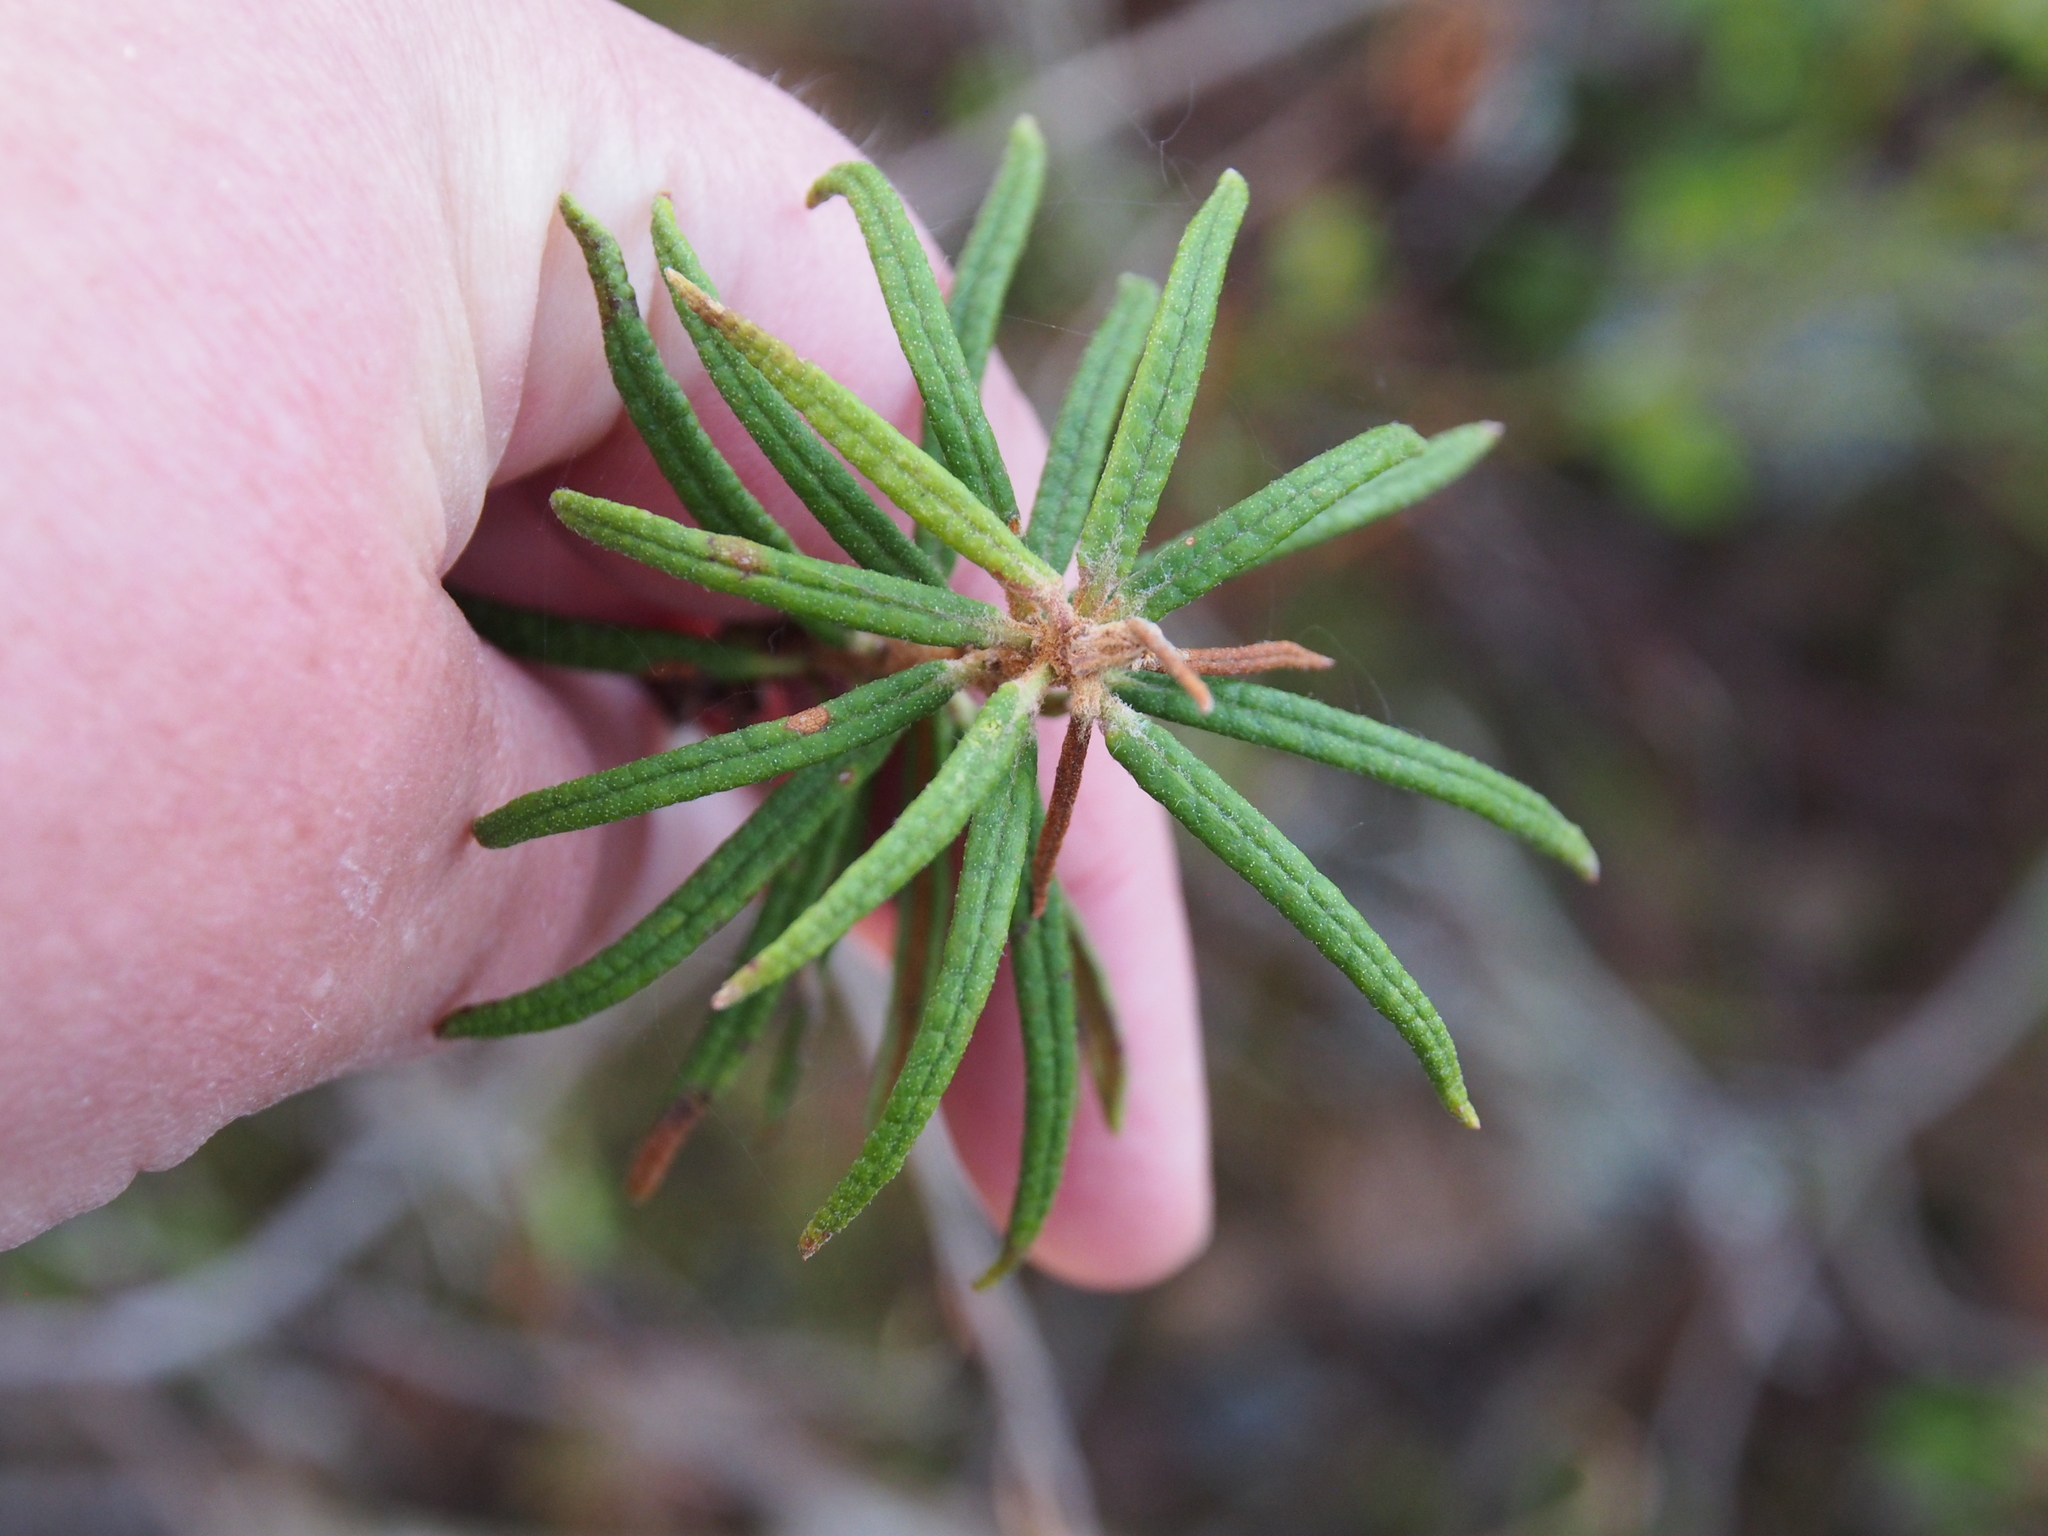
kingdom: Plantae
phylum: Tracheophyta
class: Magnoliopsida
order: Ericales
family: Ericaceae
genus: Rhododendron
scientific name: Rhododendron tomentosum
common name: Marsh labrador tea
